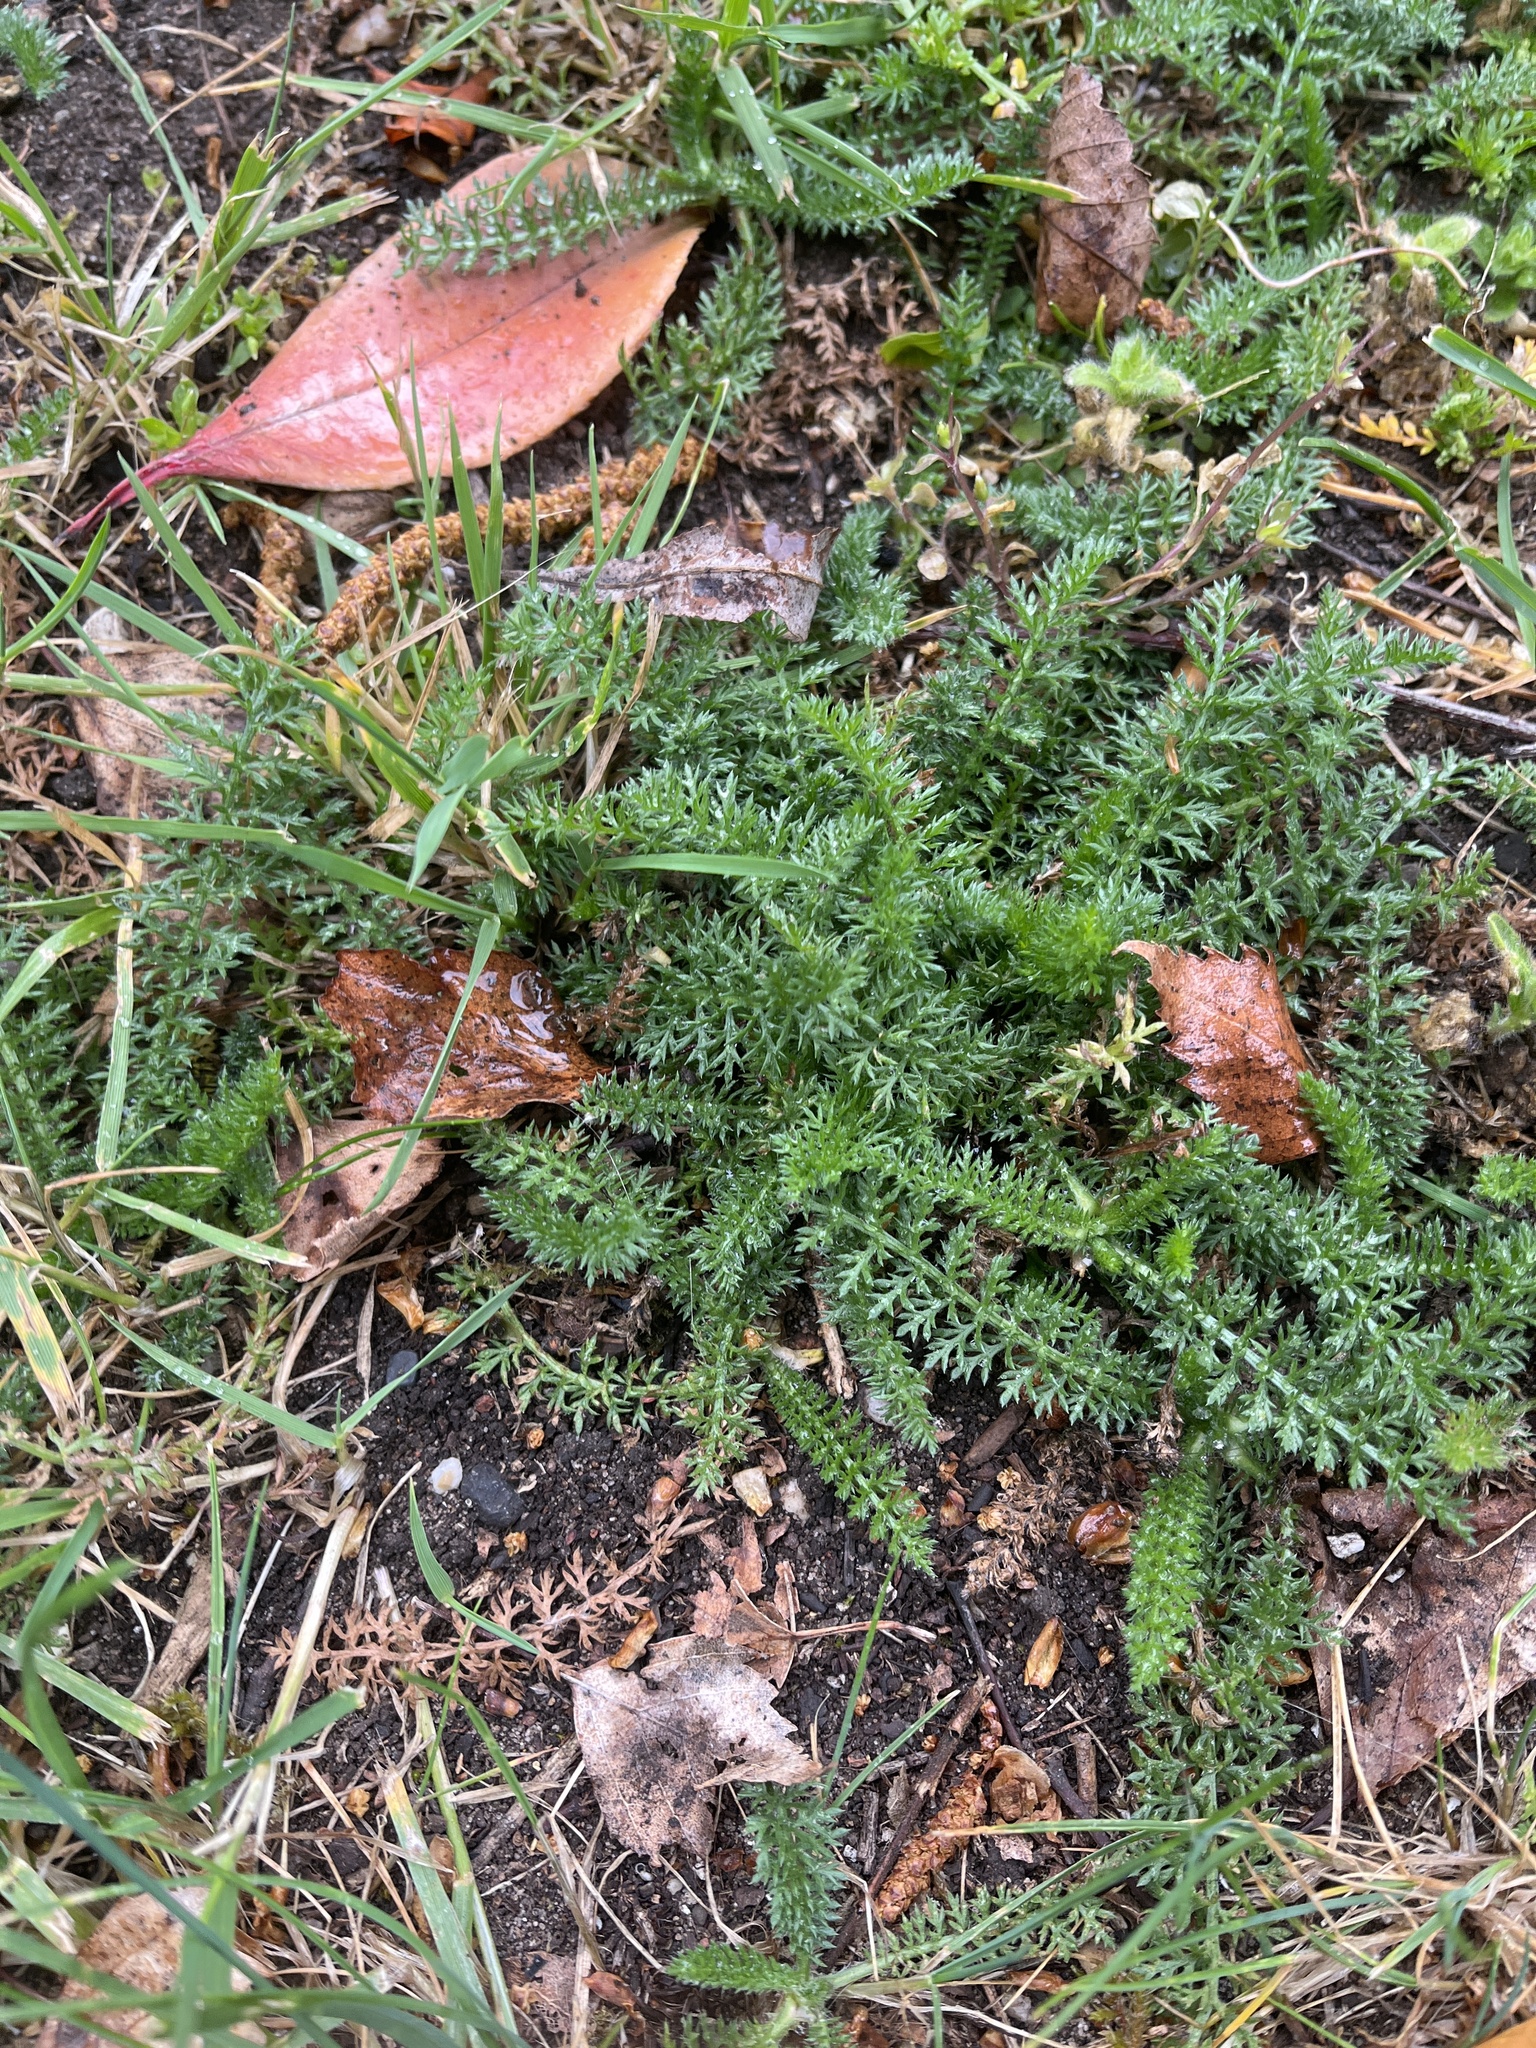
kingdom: Plantae
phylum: Tracheophyta
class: Magnoliopsida
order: Asterales
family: Asteraceae
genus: Achillea
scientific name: Achillea millefolium
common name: Yarrow
